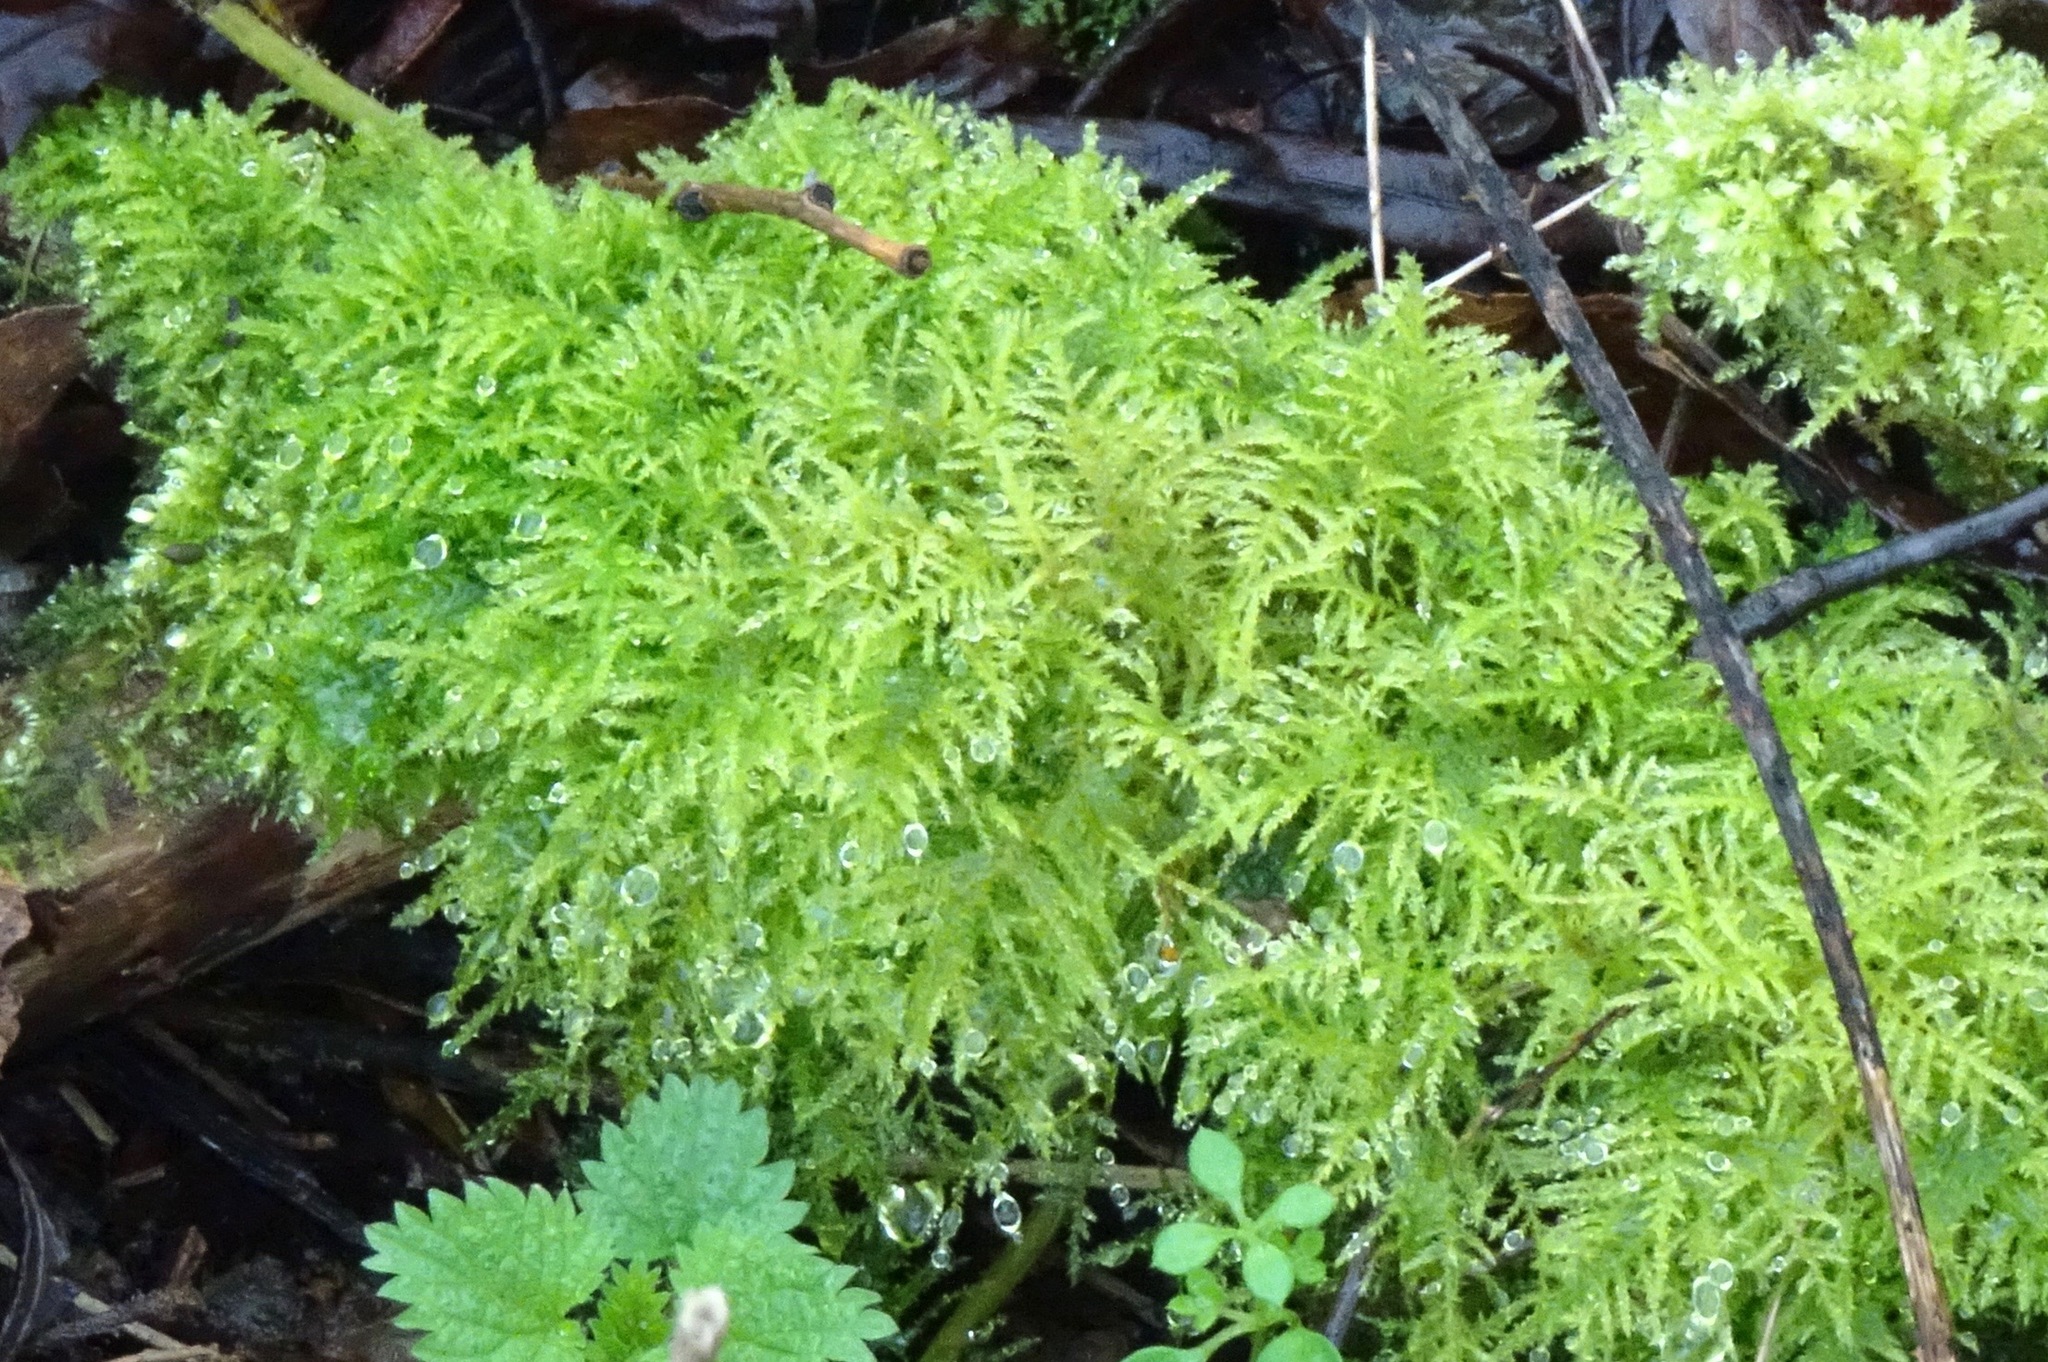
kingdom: Plantae
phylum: Bryophyta
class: Bryopsida
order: Hypnales
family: Brachytheciaceae
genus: Kindbergia
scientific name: Kindbergia praelonga
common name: Slender beaked moss
